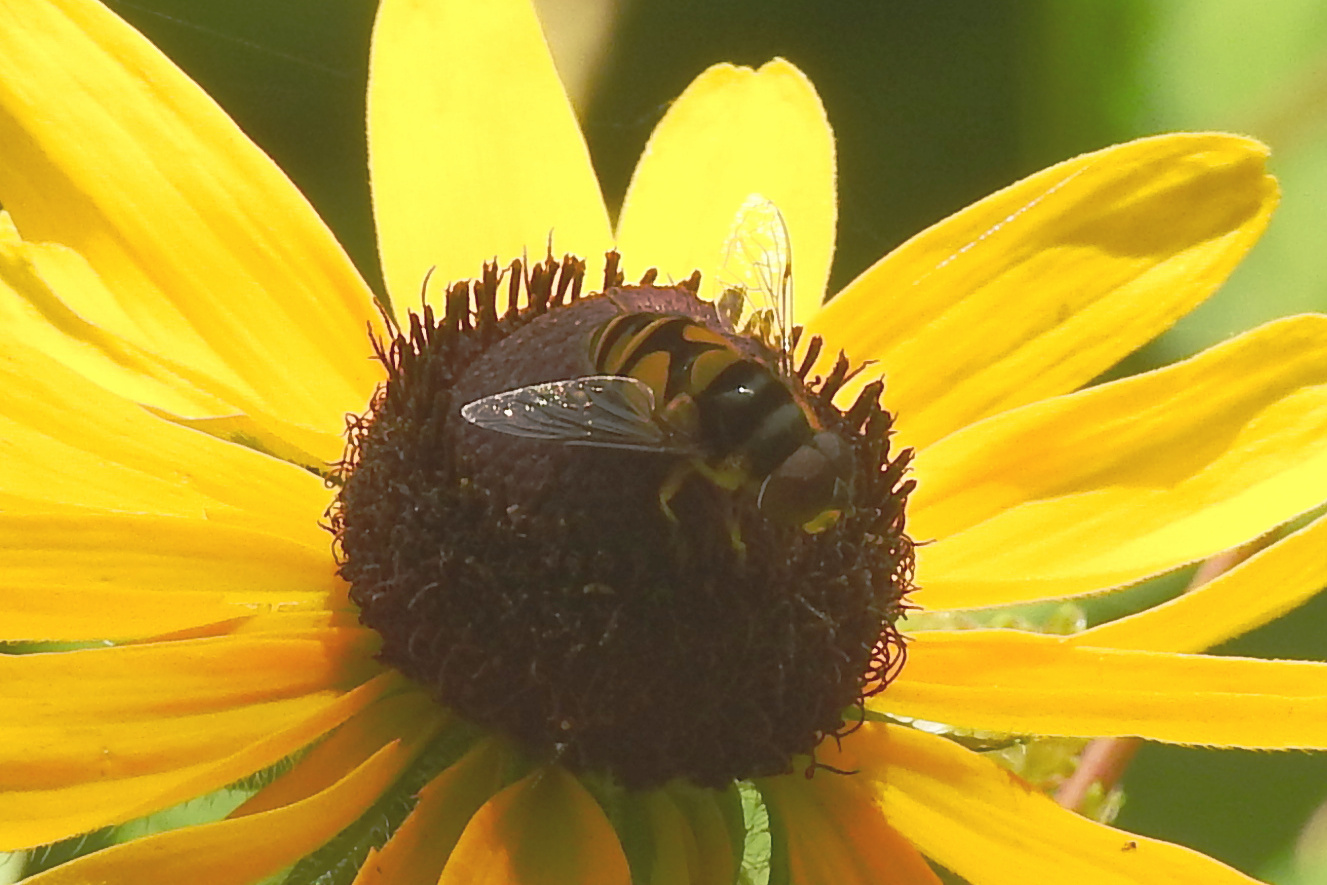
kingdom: Animalia
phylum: Arthropoda
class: Insecta
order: Diptera
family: Syrphidae
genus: Eristalis
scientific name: Eristalis transversa
